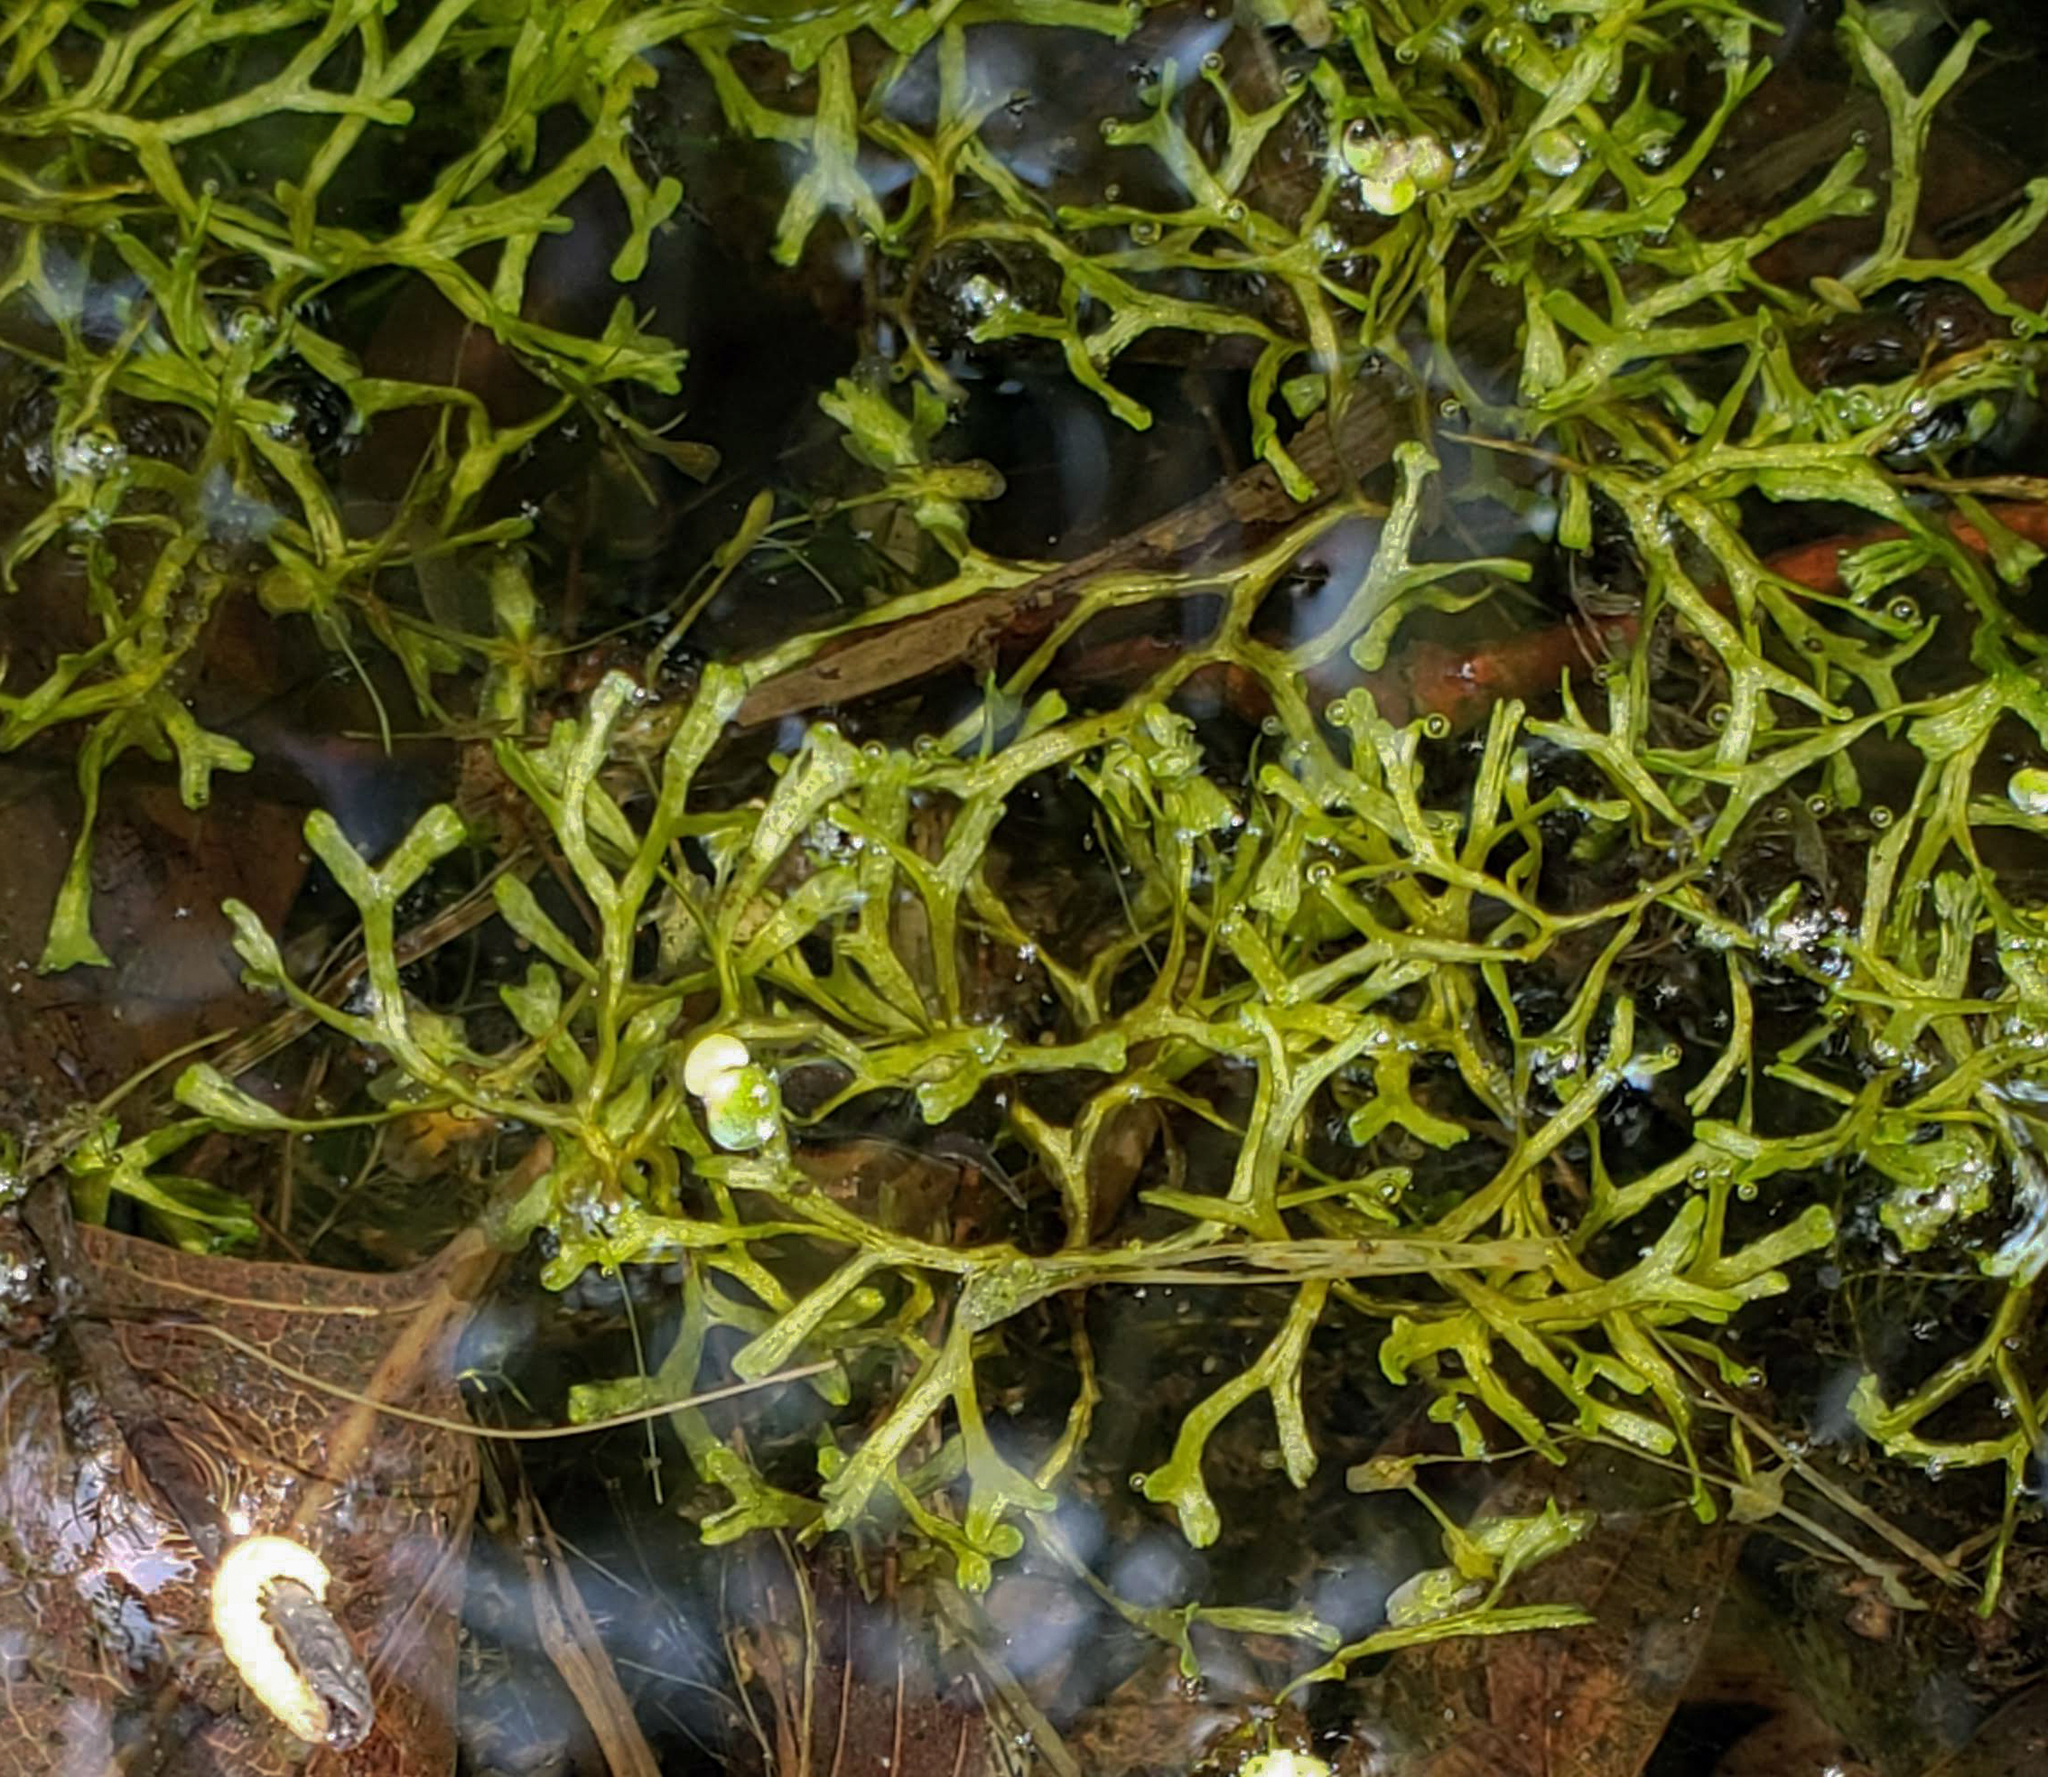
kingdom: Plantae
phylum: Marchantiophyta
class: Marchantiopsida
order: Marchantiales
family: Ricciaceae
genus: Riccia
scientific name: Riccia fluitans
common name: Floating crystalwort
